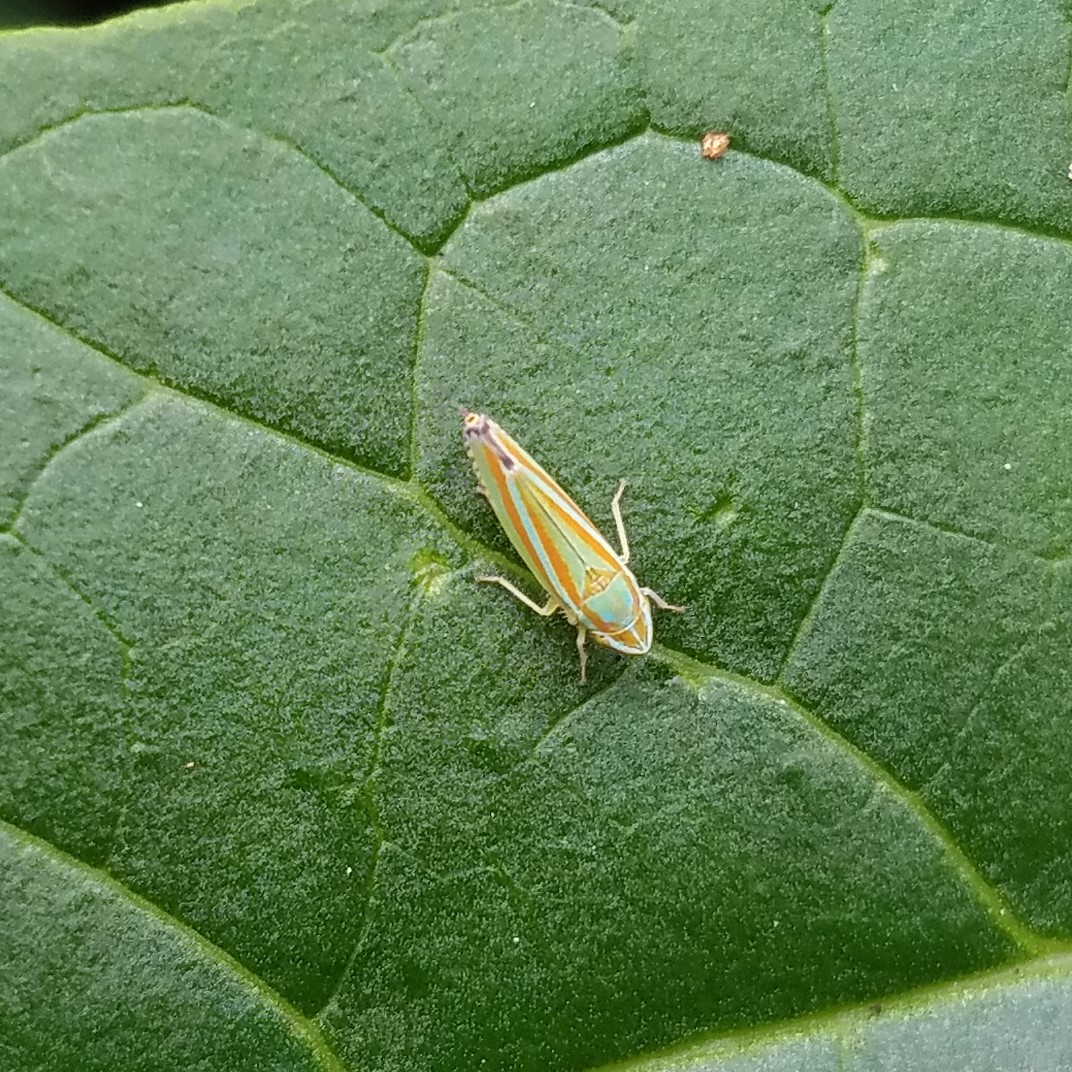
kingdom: Animalia
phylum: Arthropoda
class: Insecta
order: Hemiptera
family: Cicadellidae
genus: Graphocephala
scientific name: Graphocephala versuta
